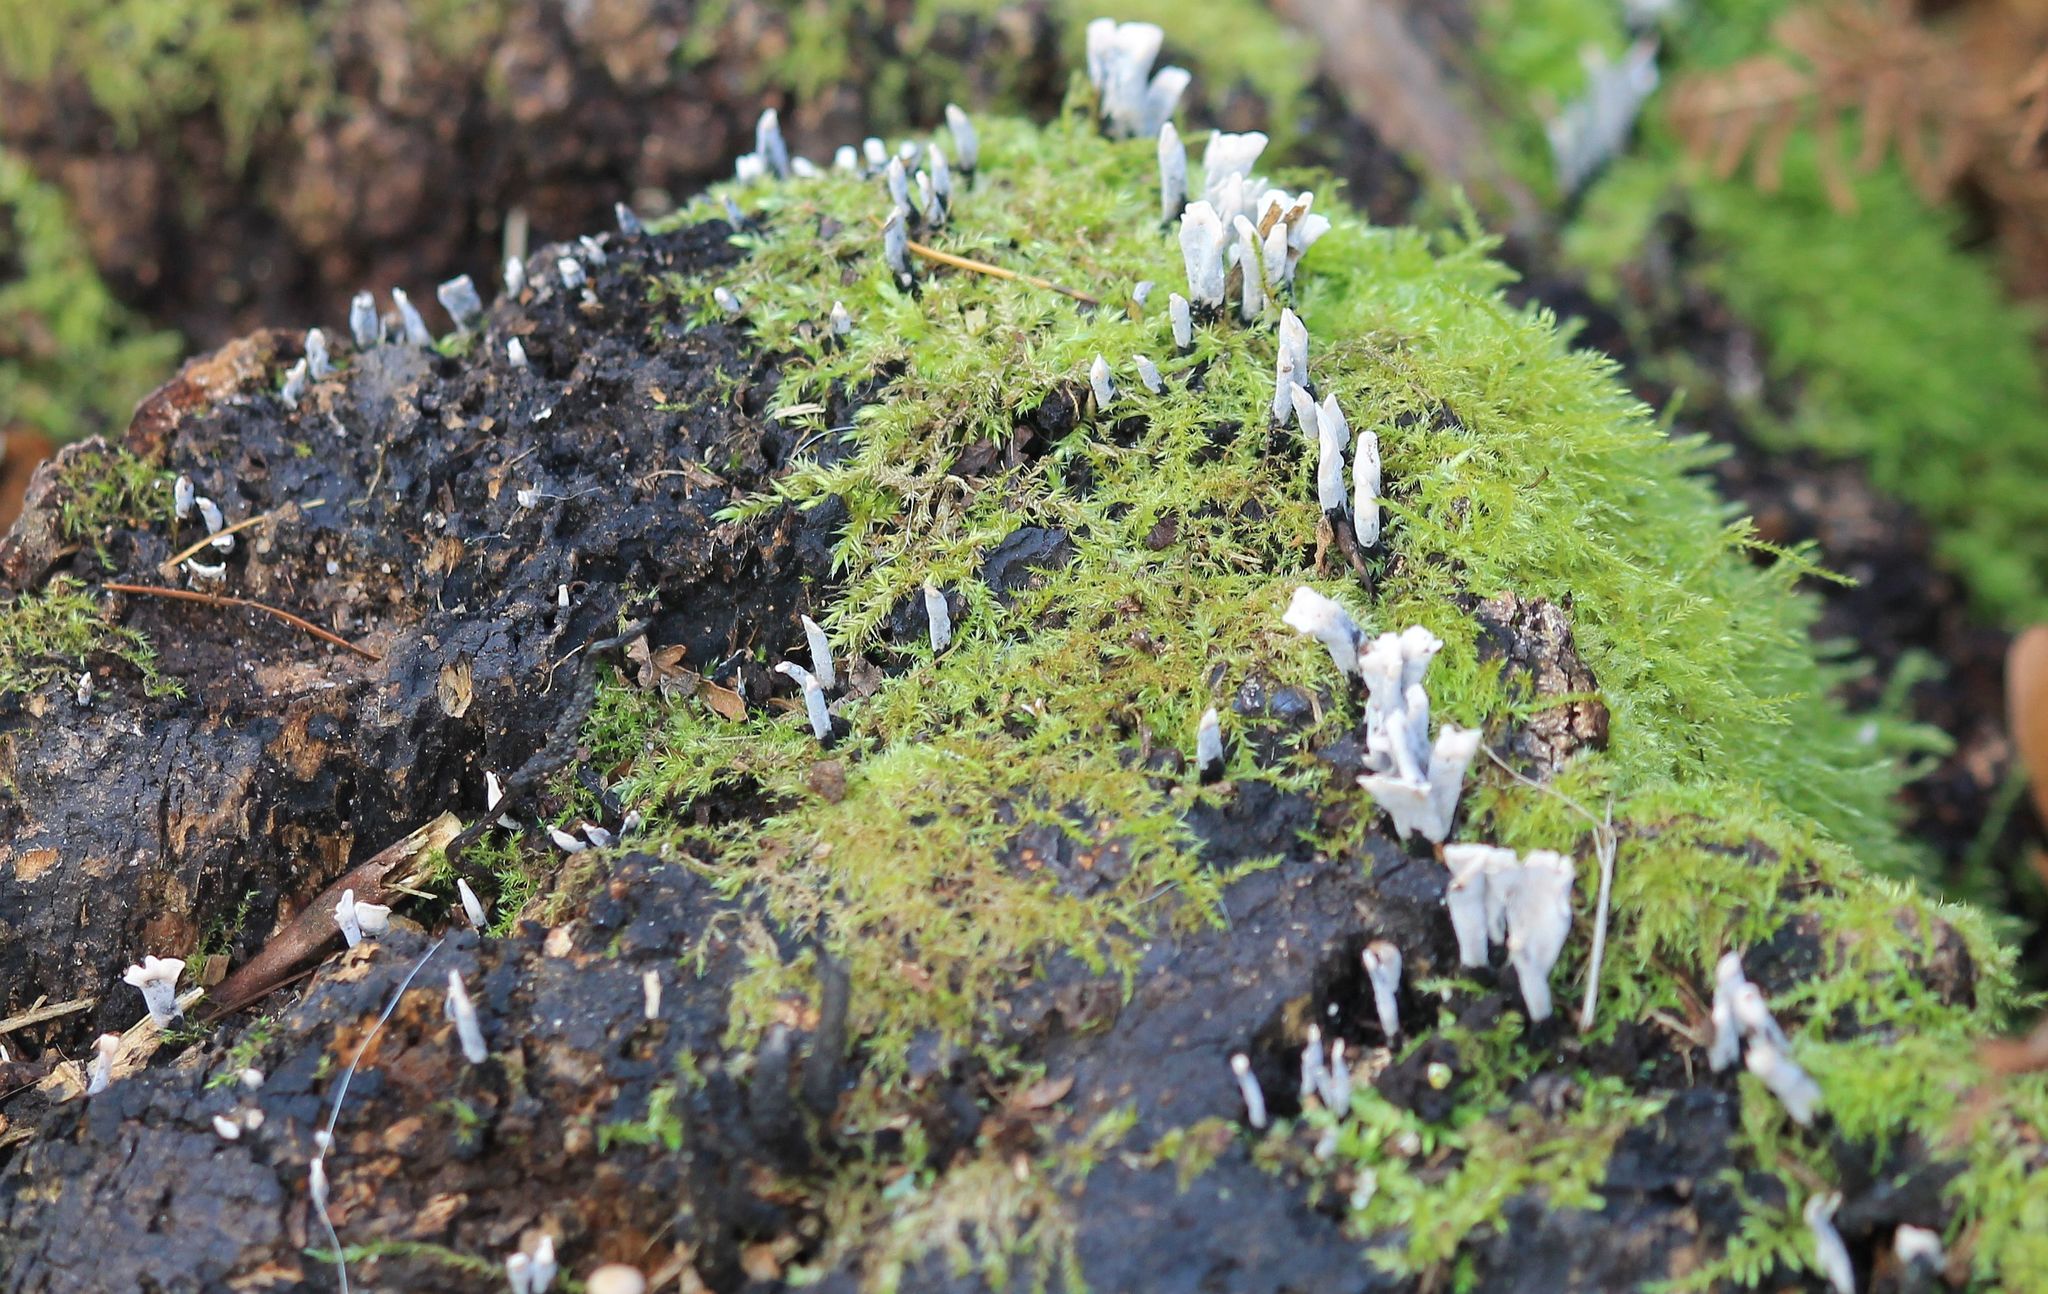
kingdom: Fungi
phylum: Ascomycota
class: Sordariomycetes
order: Xylariales
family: Xylariaceae
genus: Xylaria
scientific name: Xylaria hypoxylon
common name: Candle-snuff fungus
